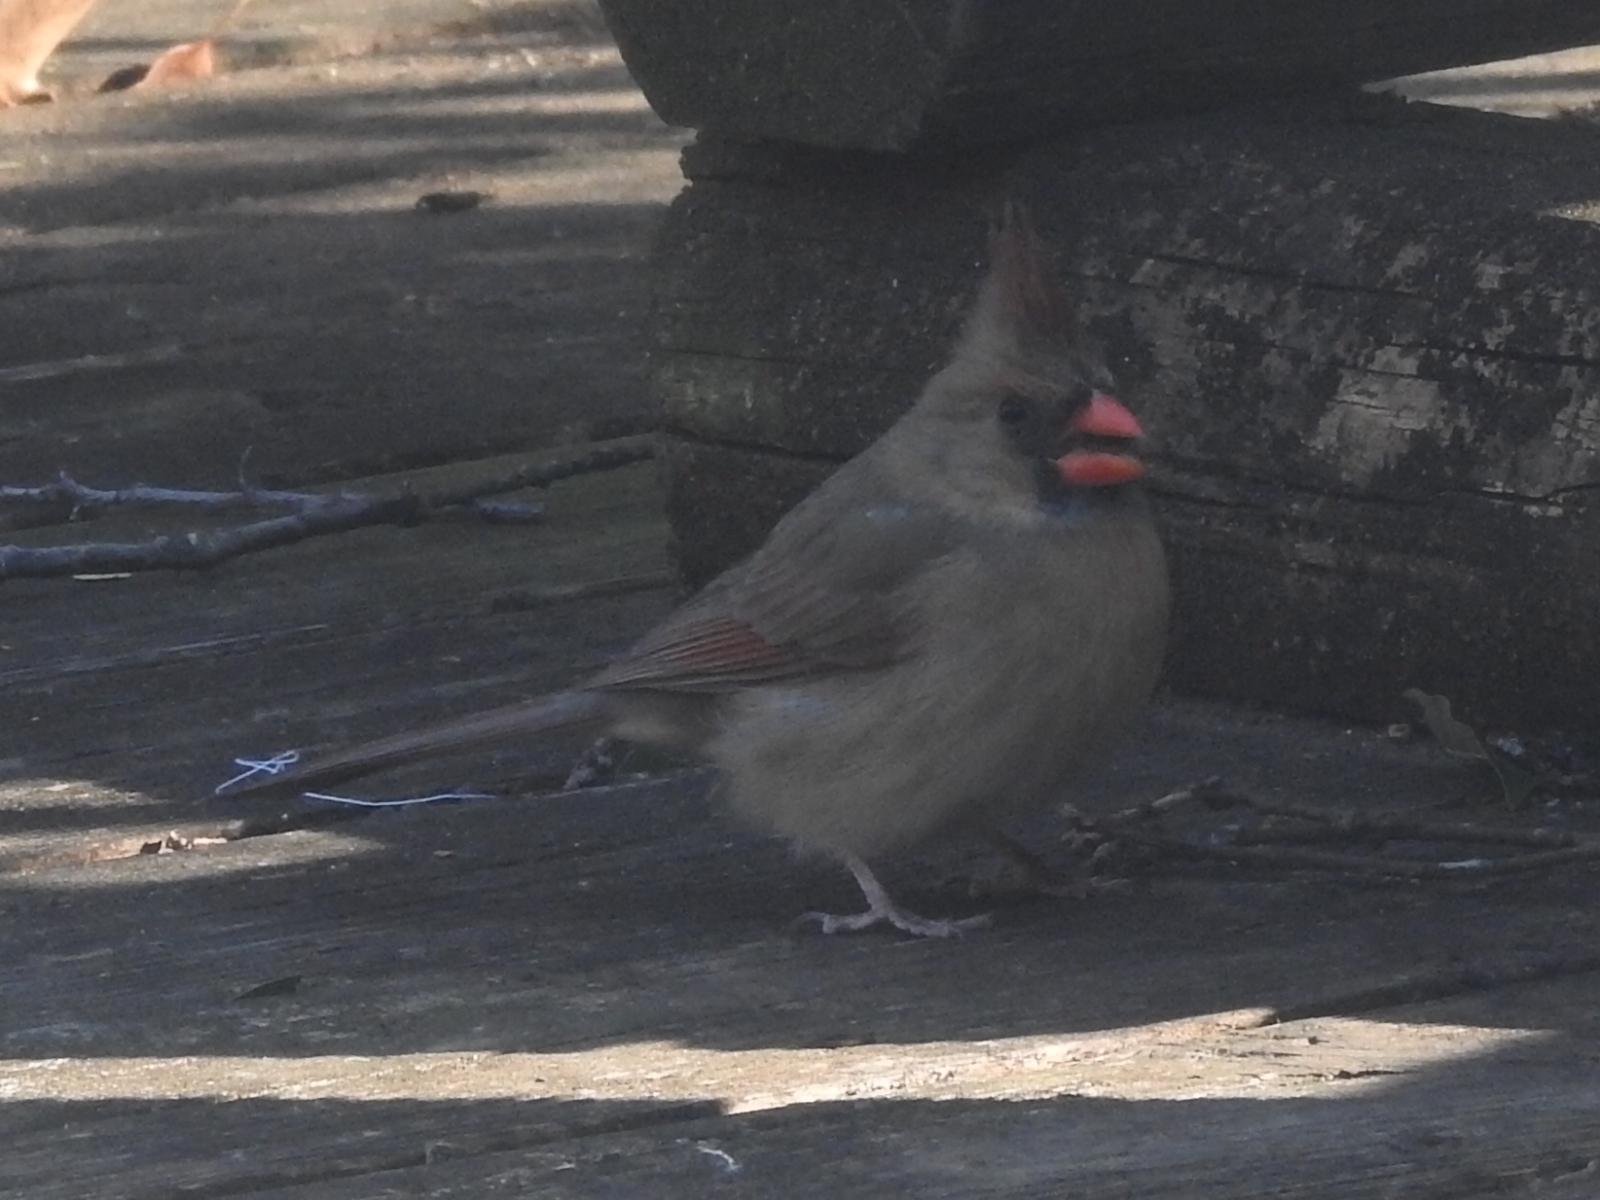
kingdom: Animalia
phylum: Chordata
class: Aves
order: Passeriformes
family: Cardinalidae
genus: Cardinalis
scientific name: Cardinalis cardinalis
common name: Northern cardinal
